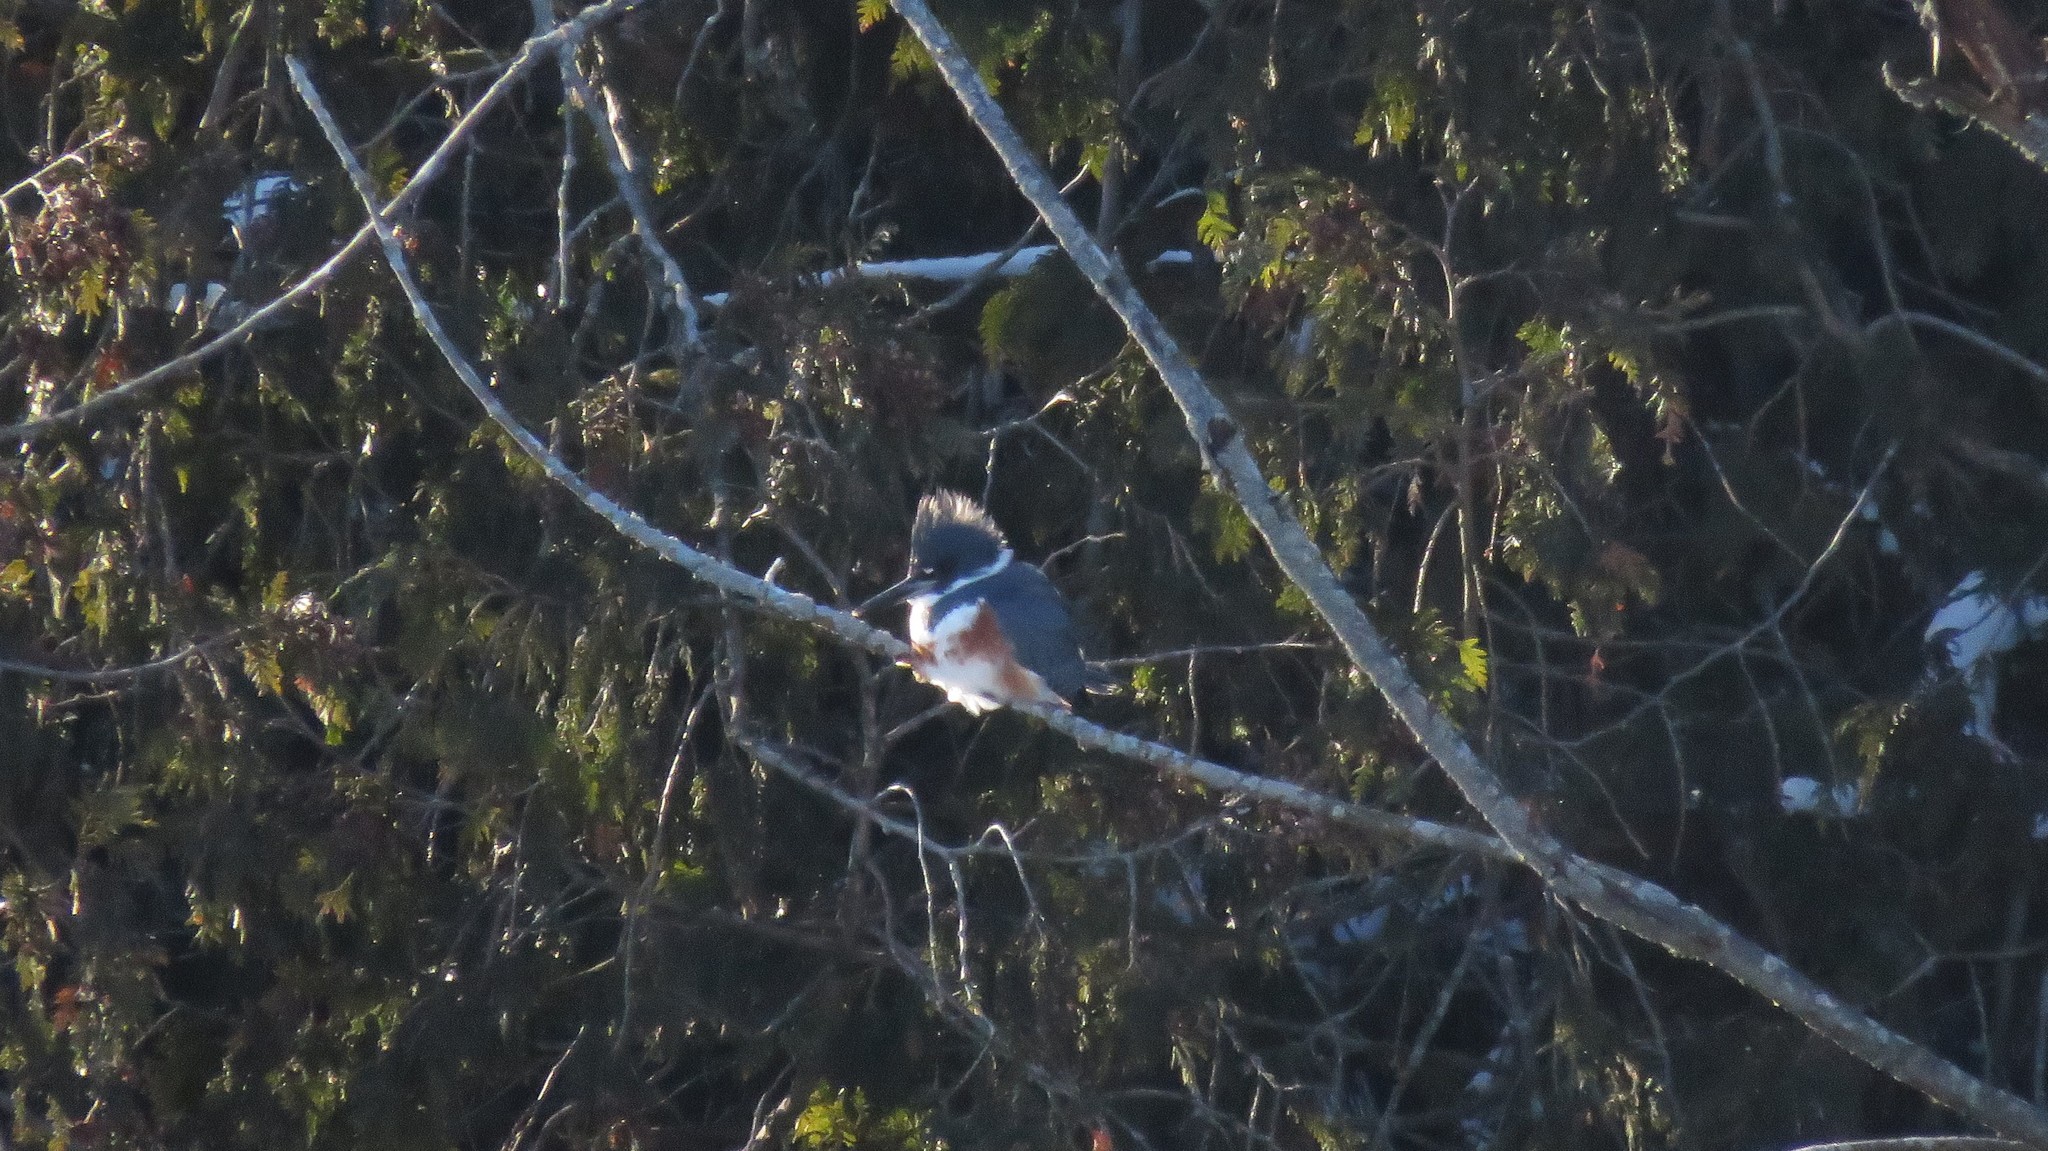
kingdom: Animalia
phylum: Chordata
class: Aves
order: Coraciiformes
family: Alcedinidae
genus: Megaceryle
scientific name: Megaceryle alcyon
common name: Belted kingfisher
